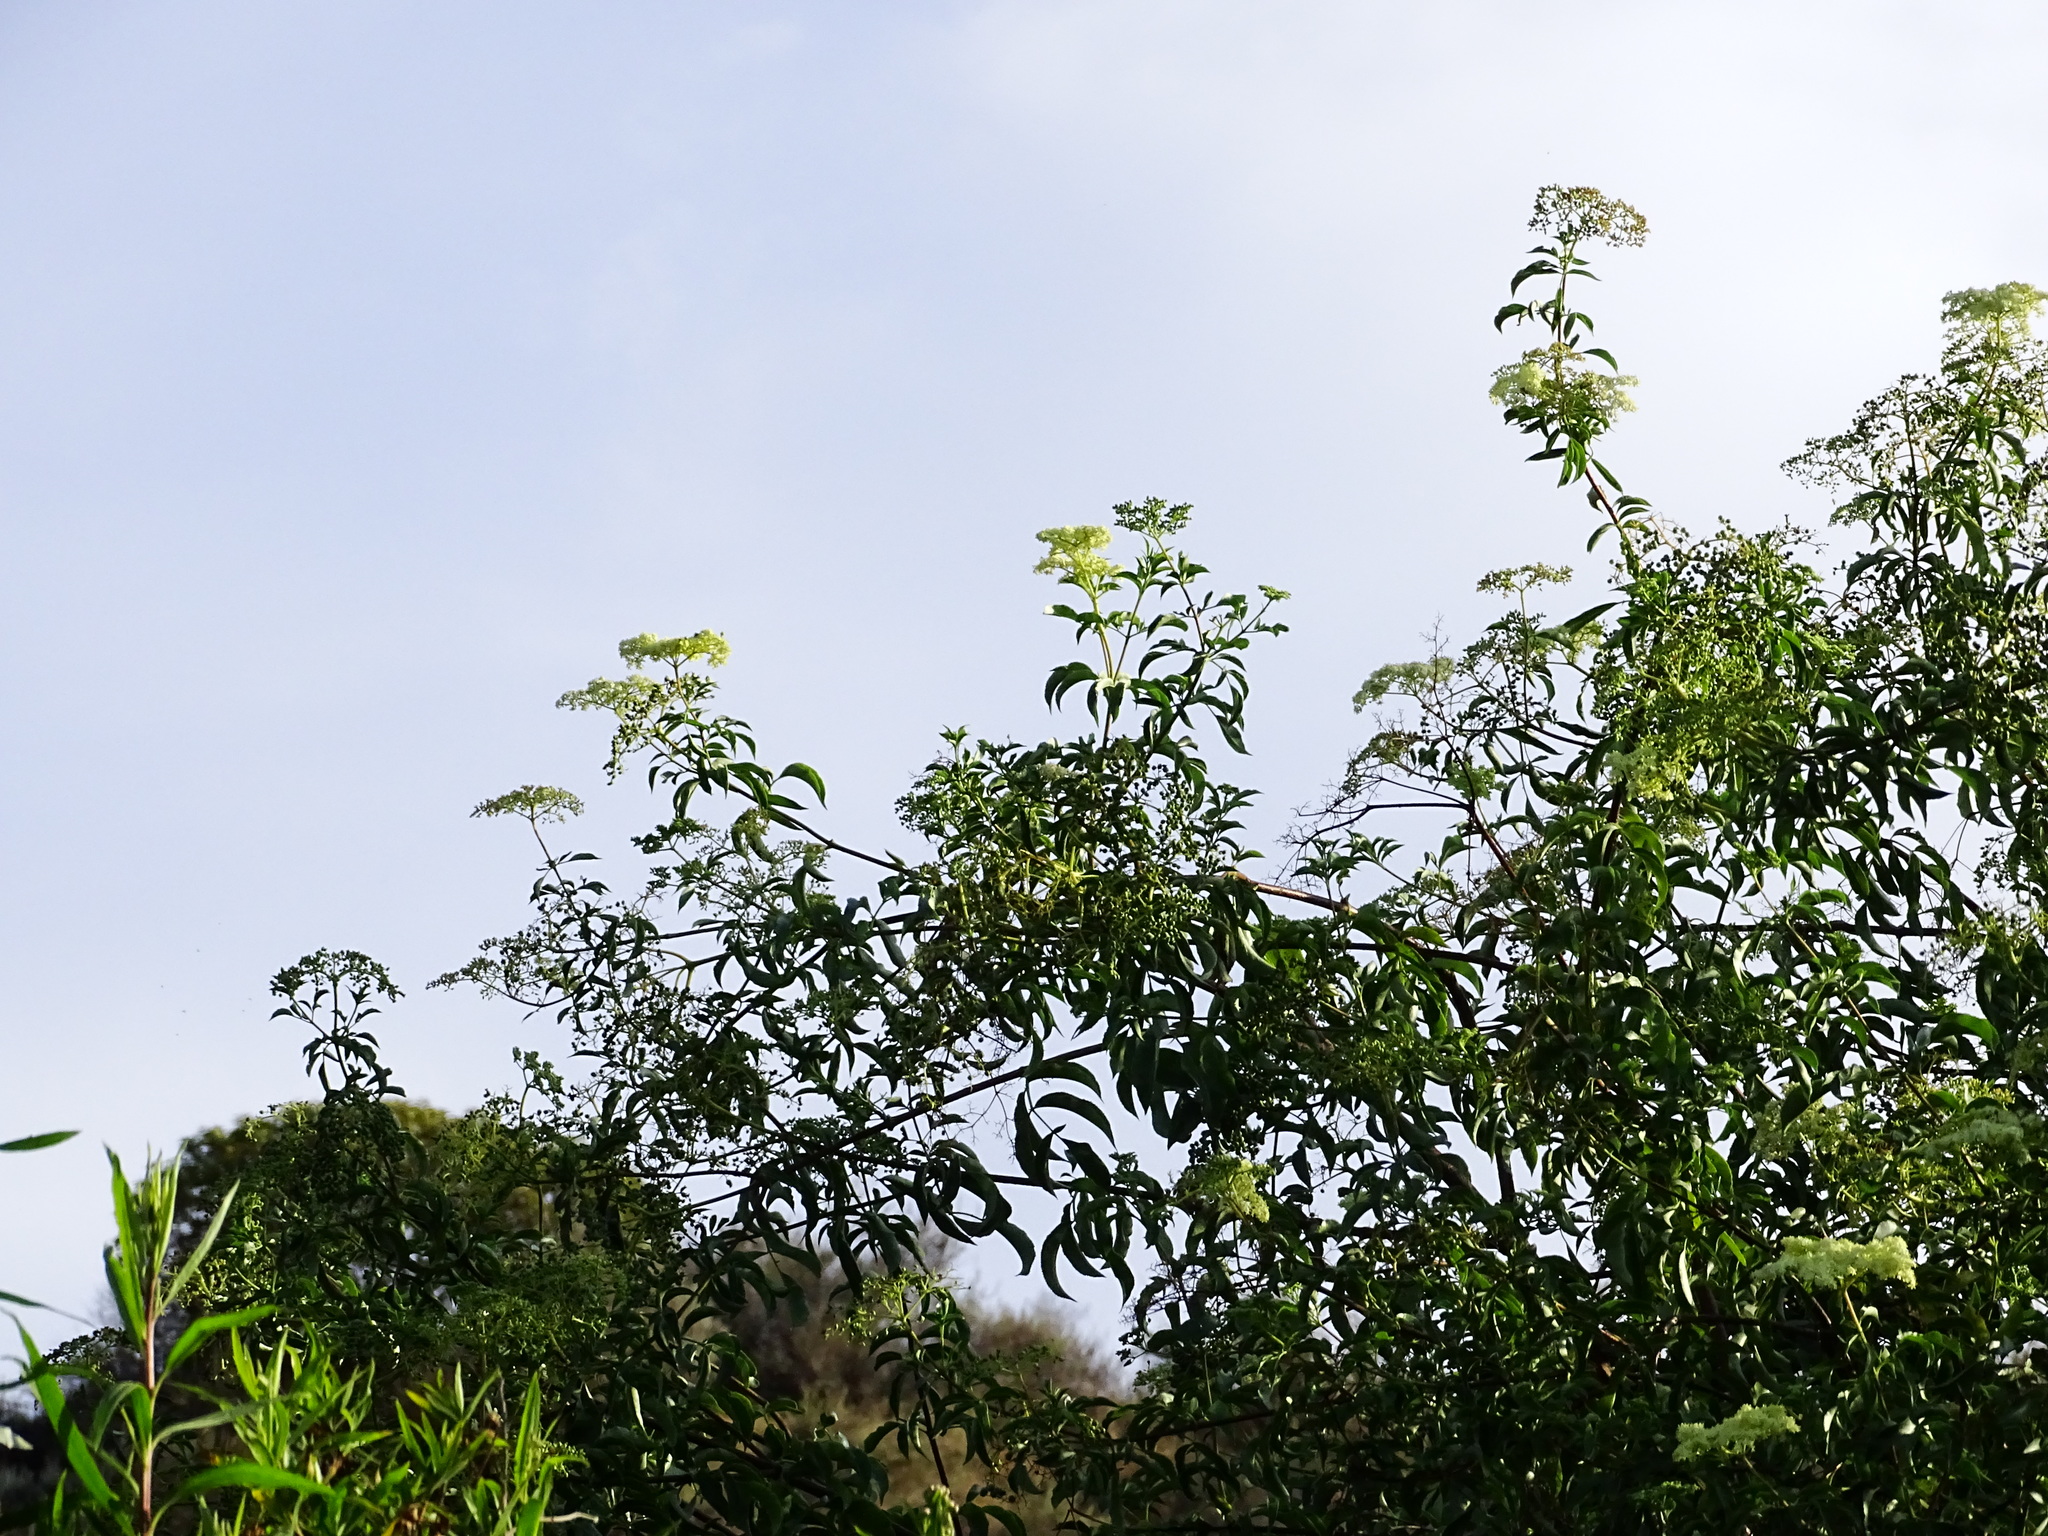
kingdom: Plantae
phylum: Tracheophyta
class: Magnoliopsida
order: Dipsacales
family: Viburnaceae
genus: Sambucus
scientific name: Sambucus cerulea
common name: Blue elder
